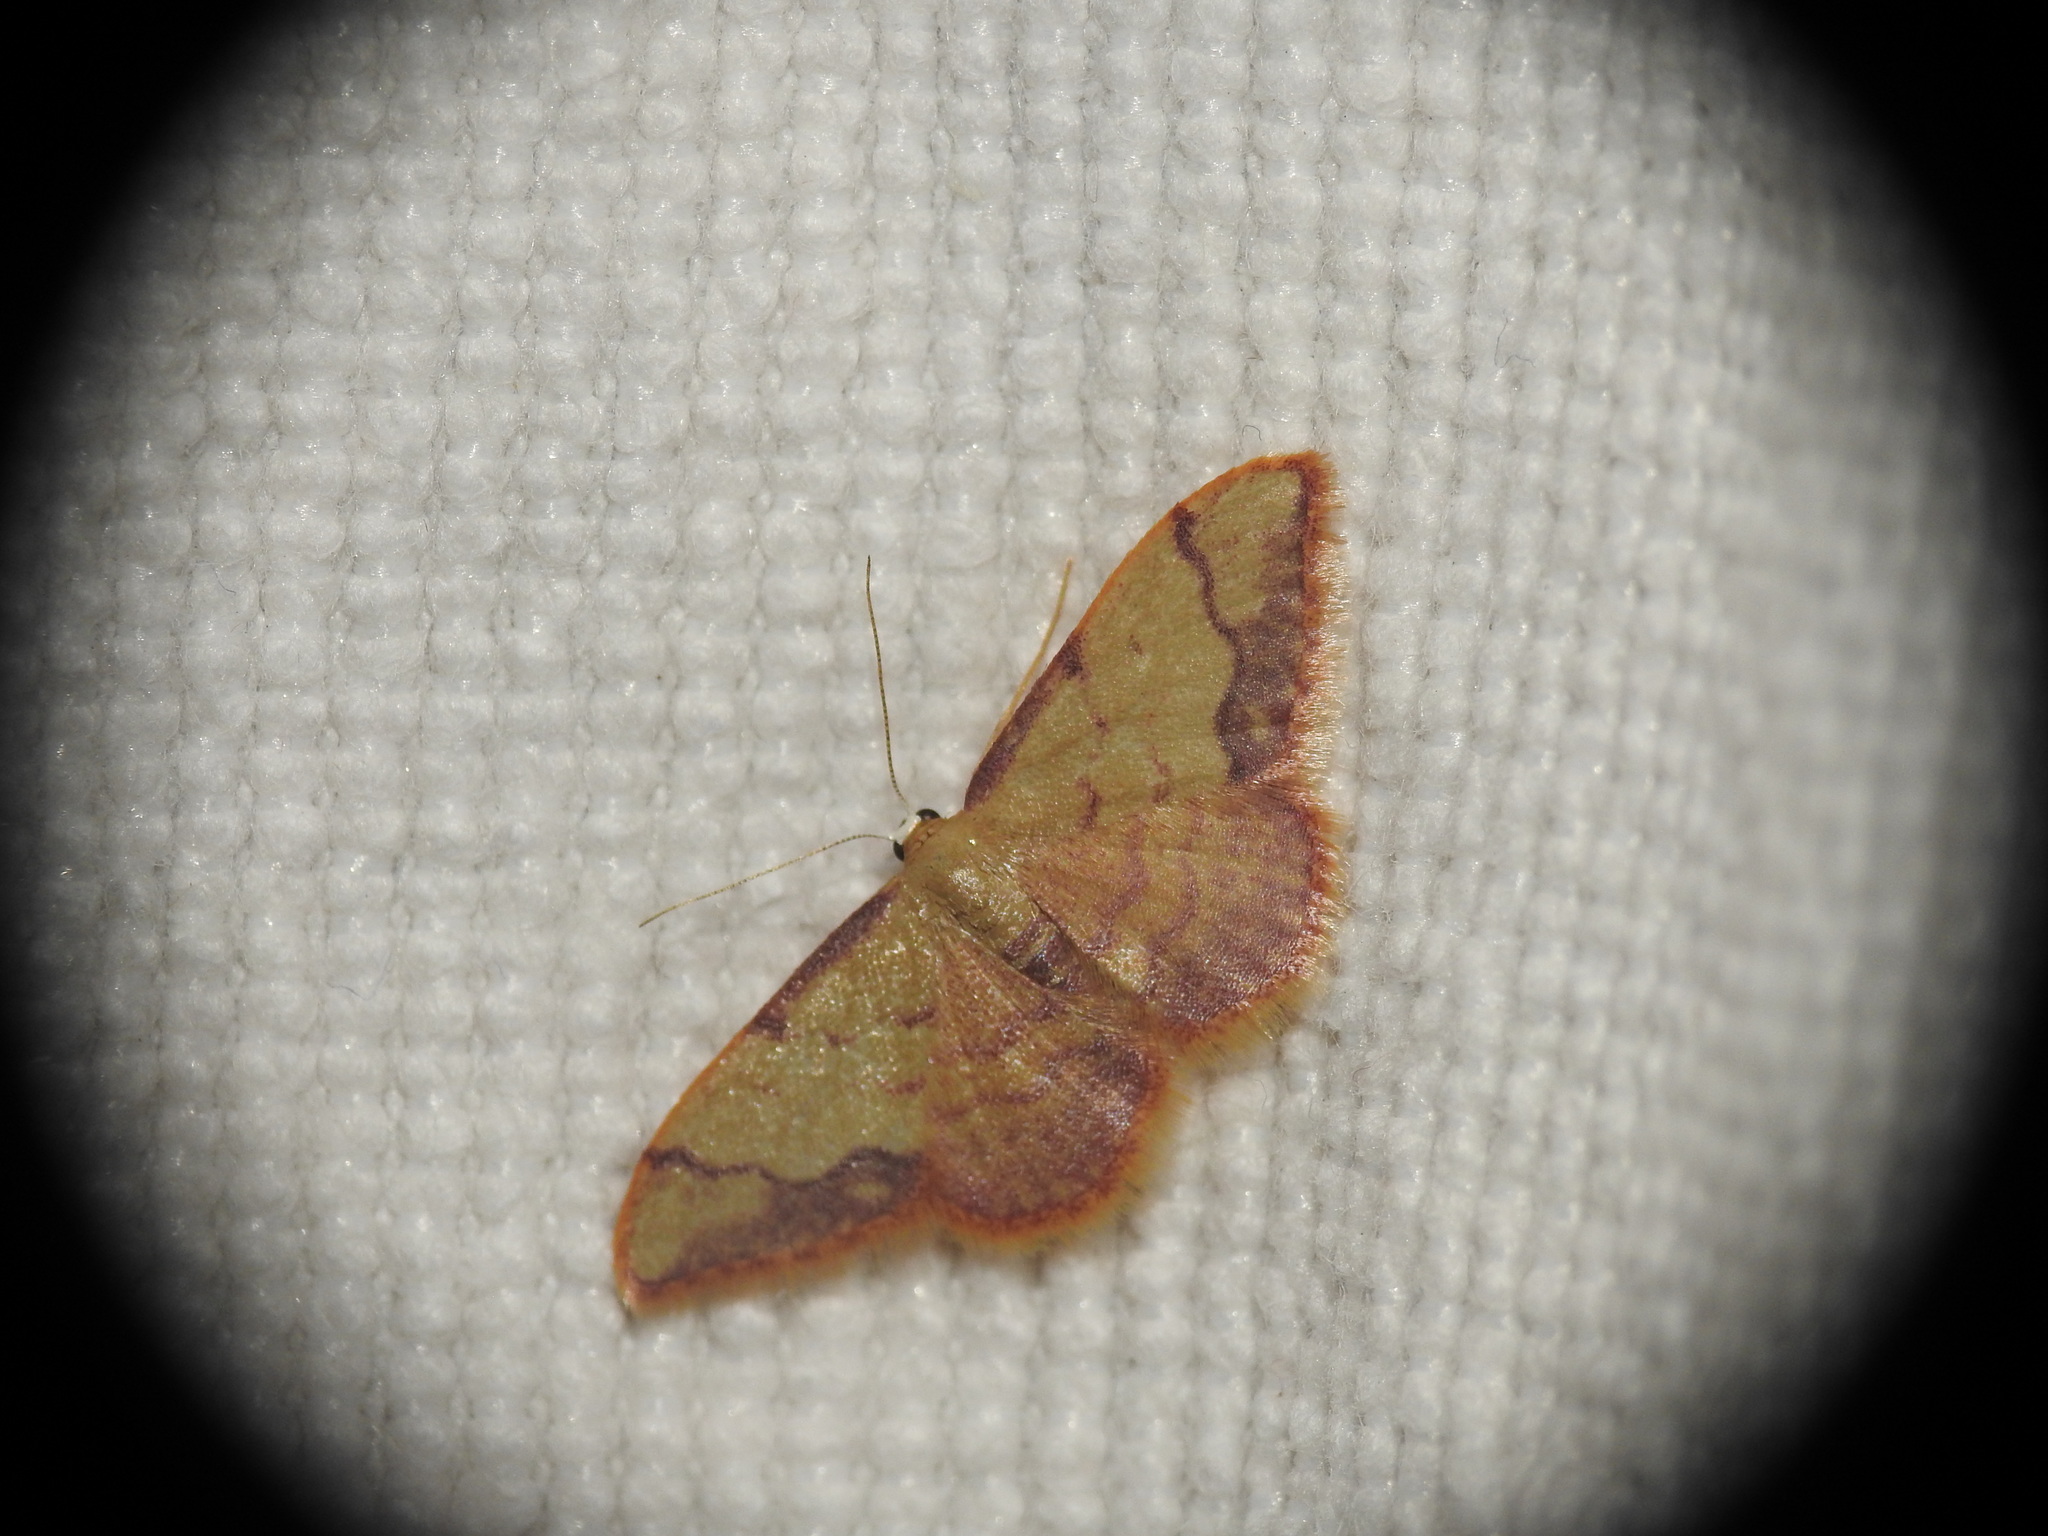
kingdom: Animalia
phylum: Arthropoda
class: Insecta
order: Lepidoptera
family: Geometridae
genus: Idaea
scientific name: Idaea ostrinaria
